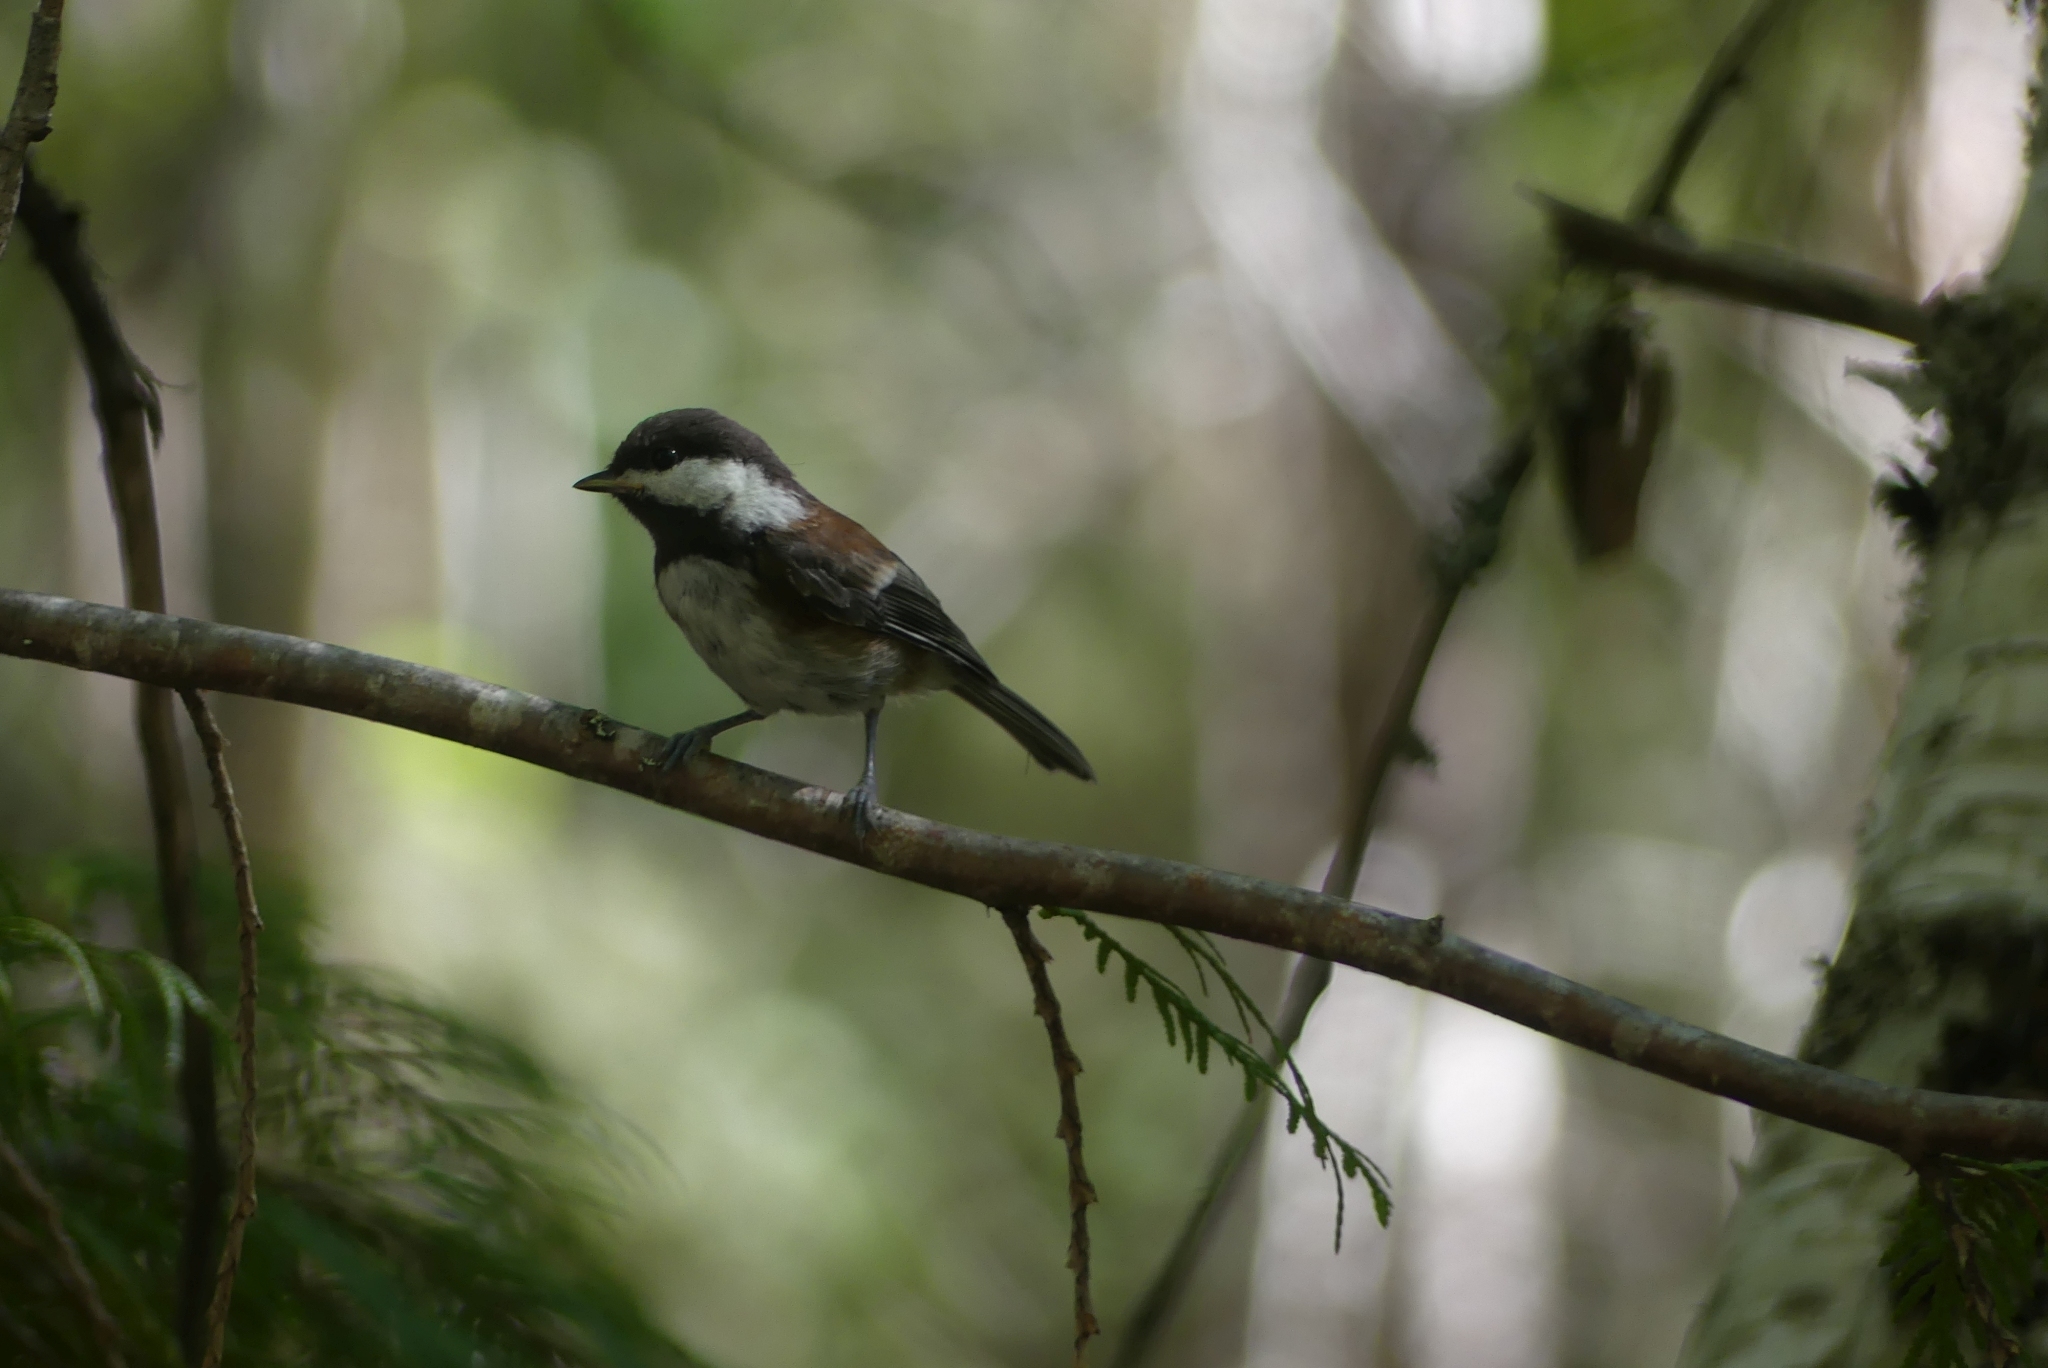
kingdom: Animalia
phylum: Chordata
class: Aves
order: Passeriformes
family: Paridae
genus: Poecile
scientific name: Poecile rufescens
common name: Chestnut-backed chickadee
